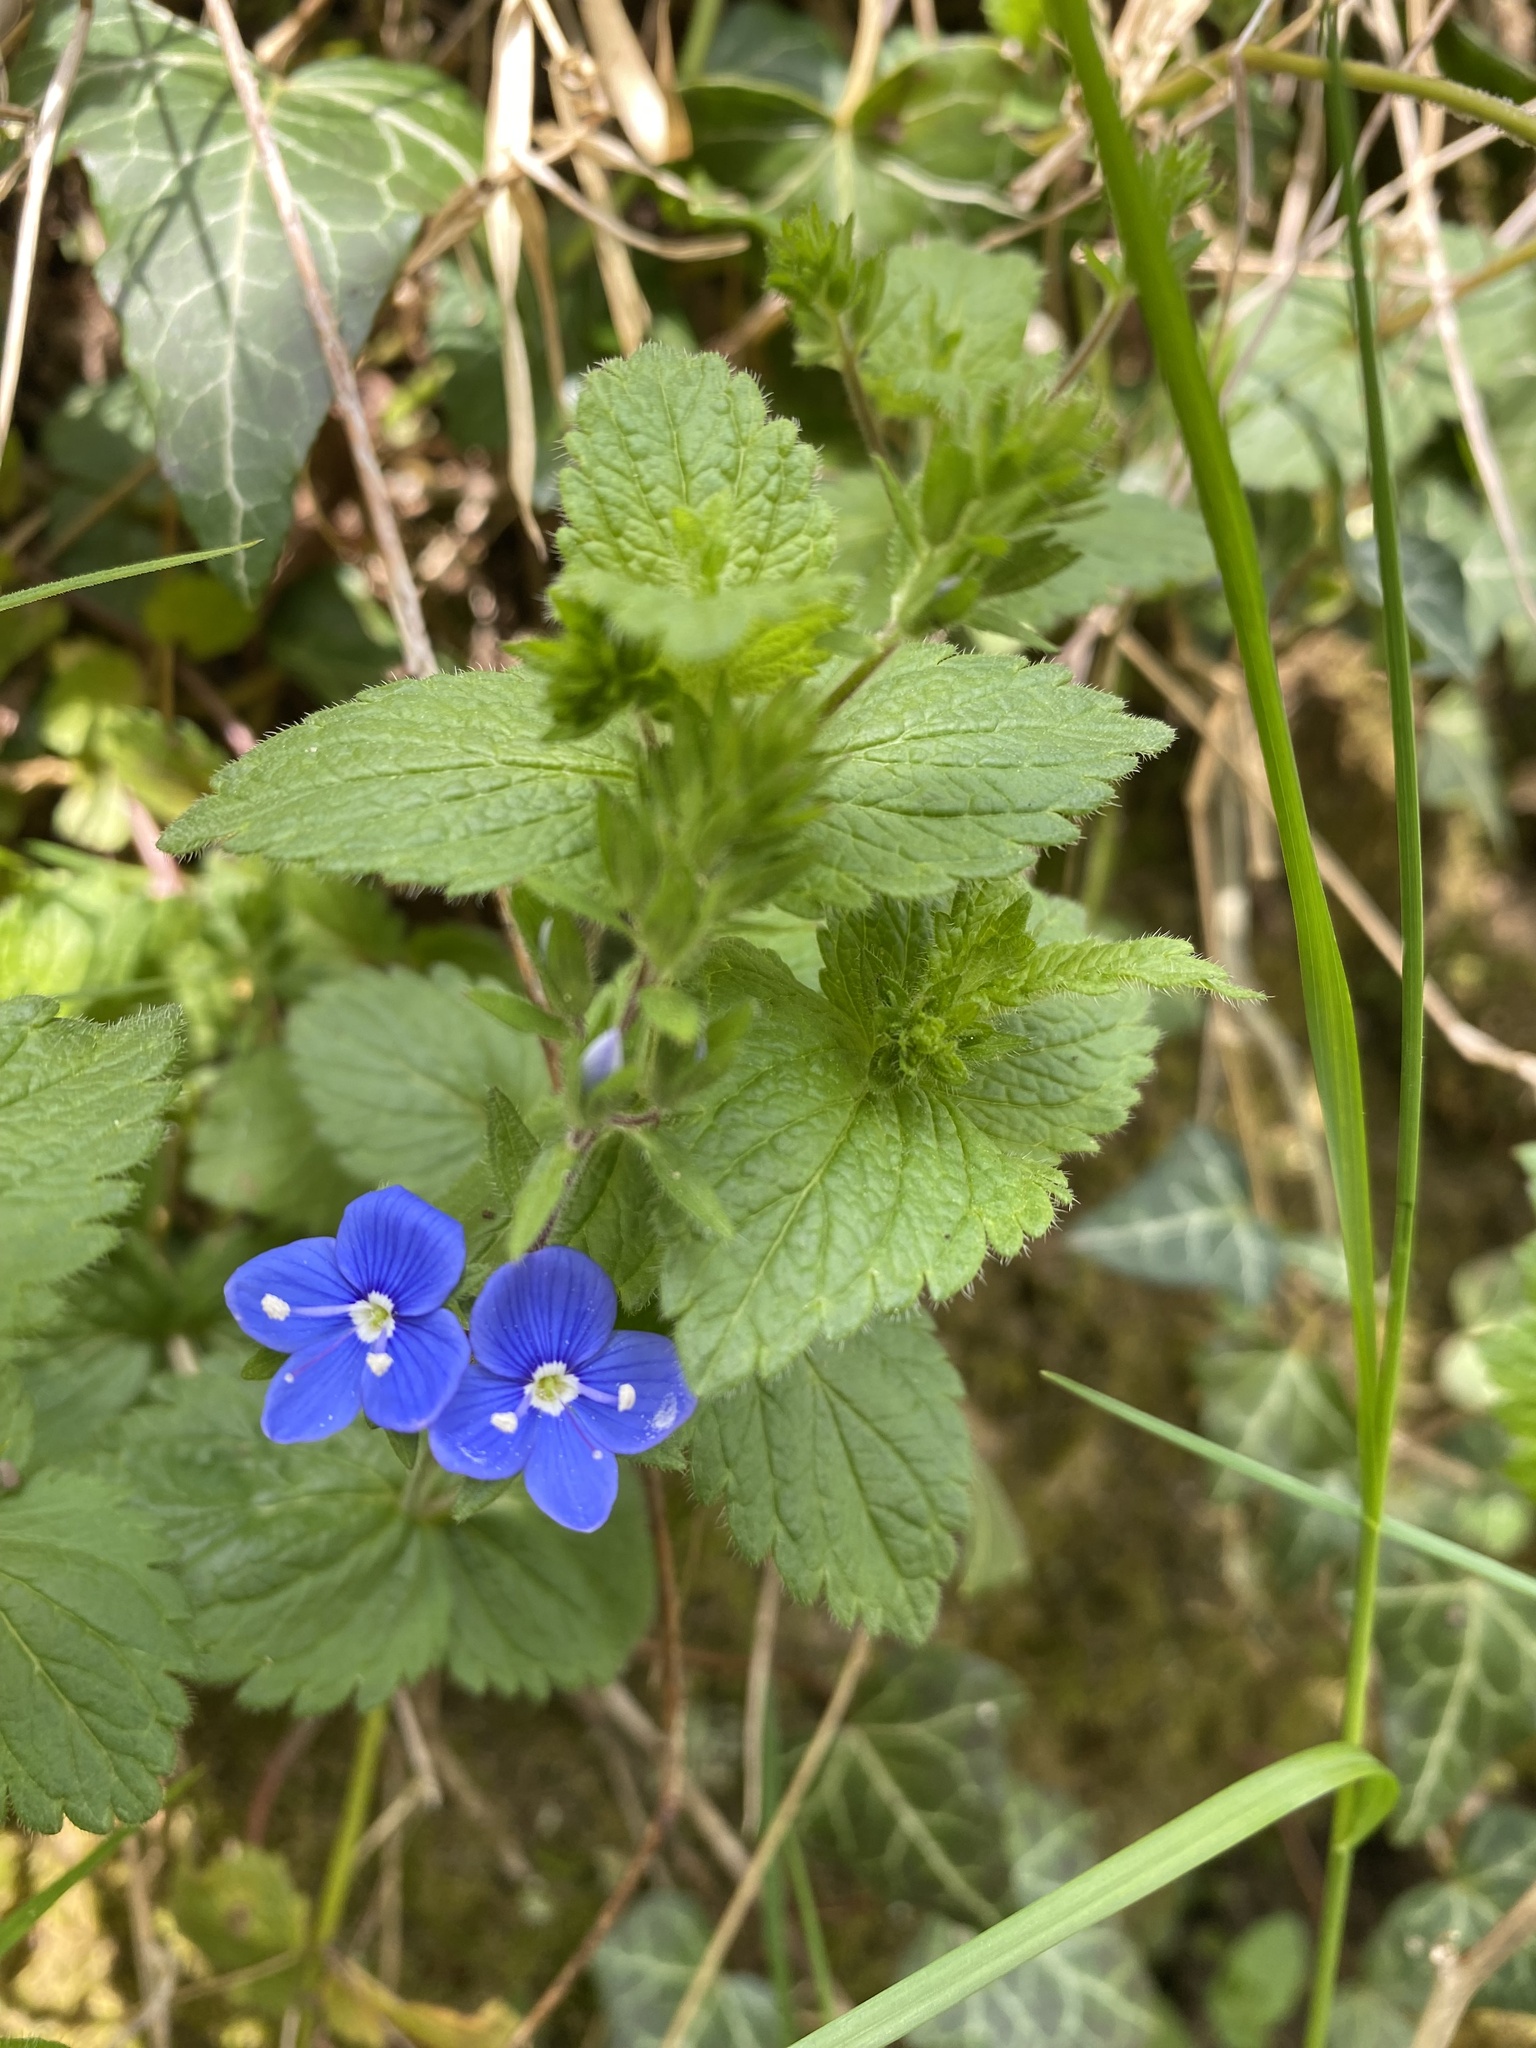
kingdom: Plantae
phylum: Tracheophyta
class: Magnoliopsida
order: Lamiales
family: Plantaginaceae
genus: Veronica
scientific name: Veronica chamaedrys
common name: Germander speedwell
